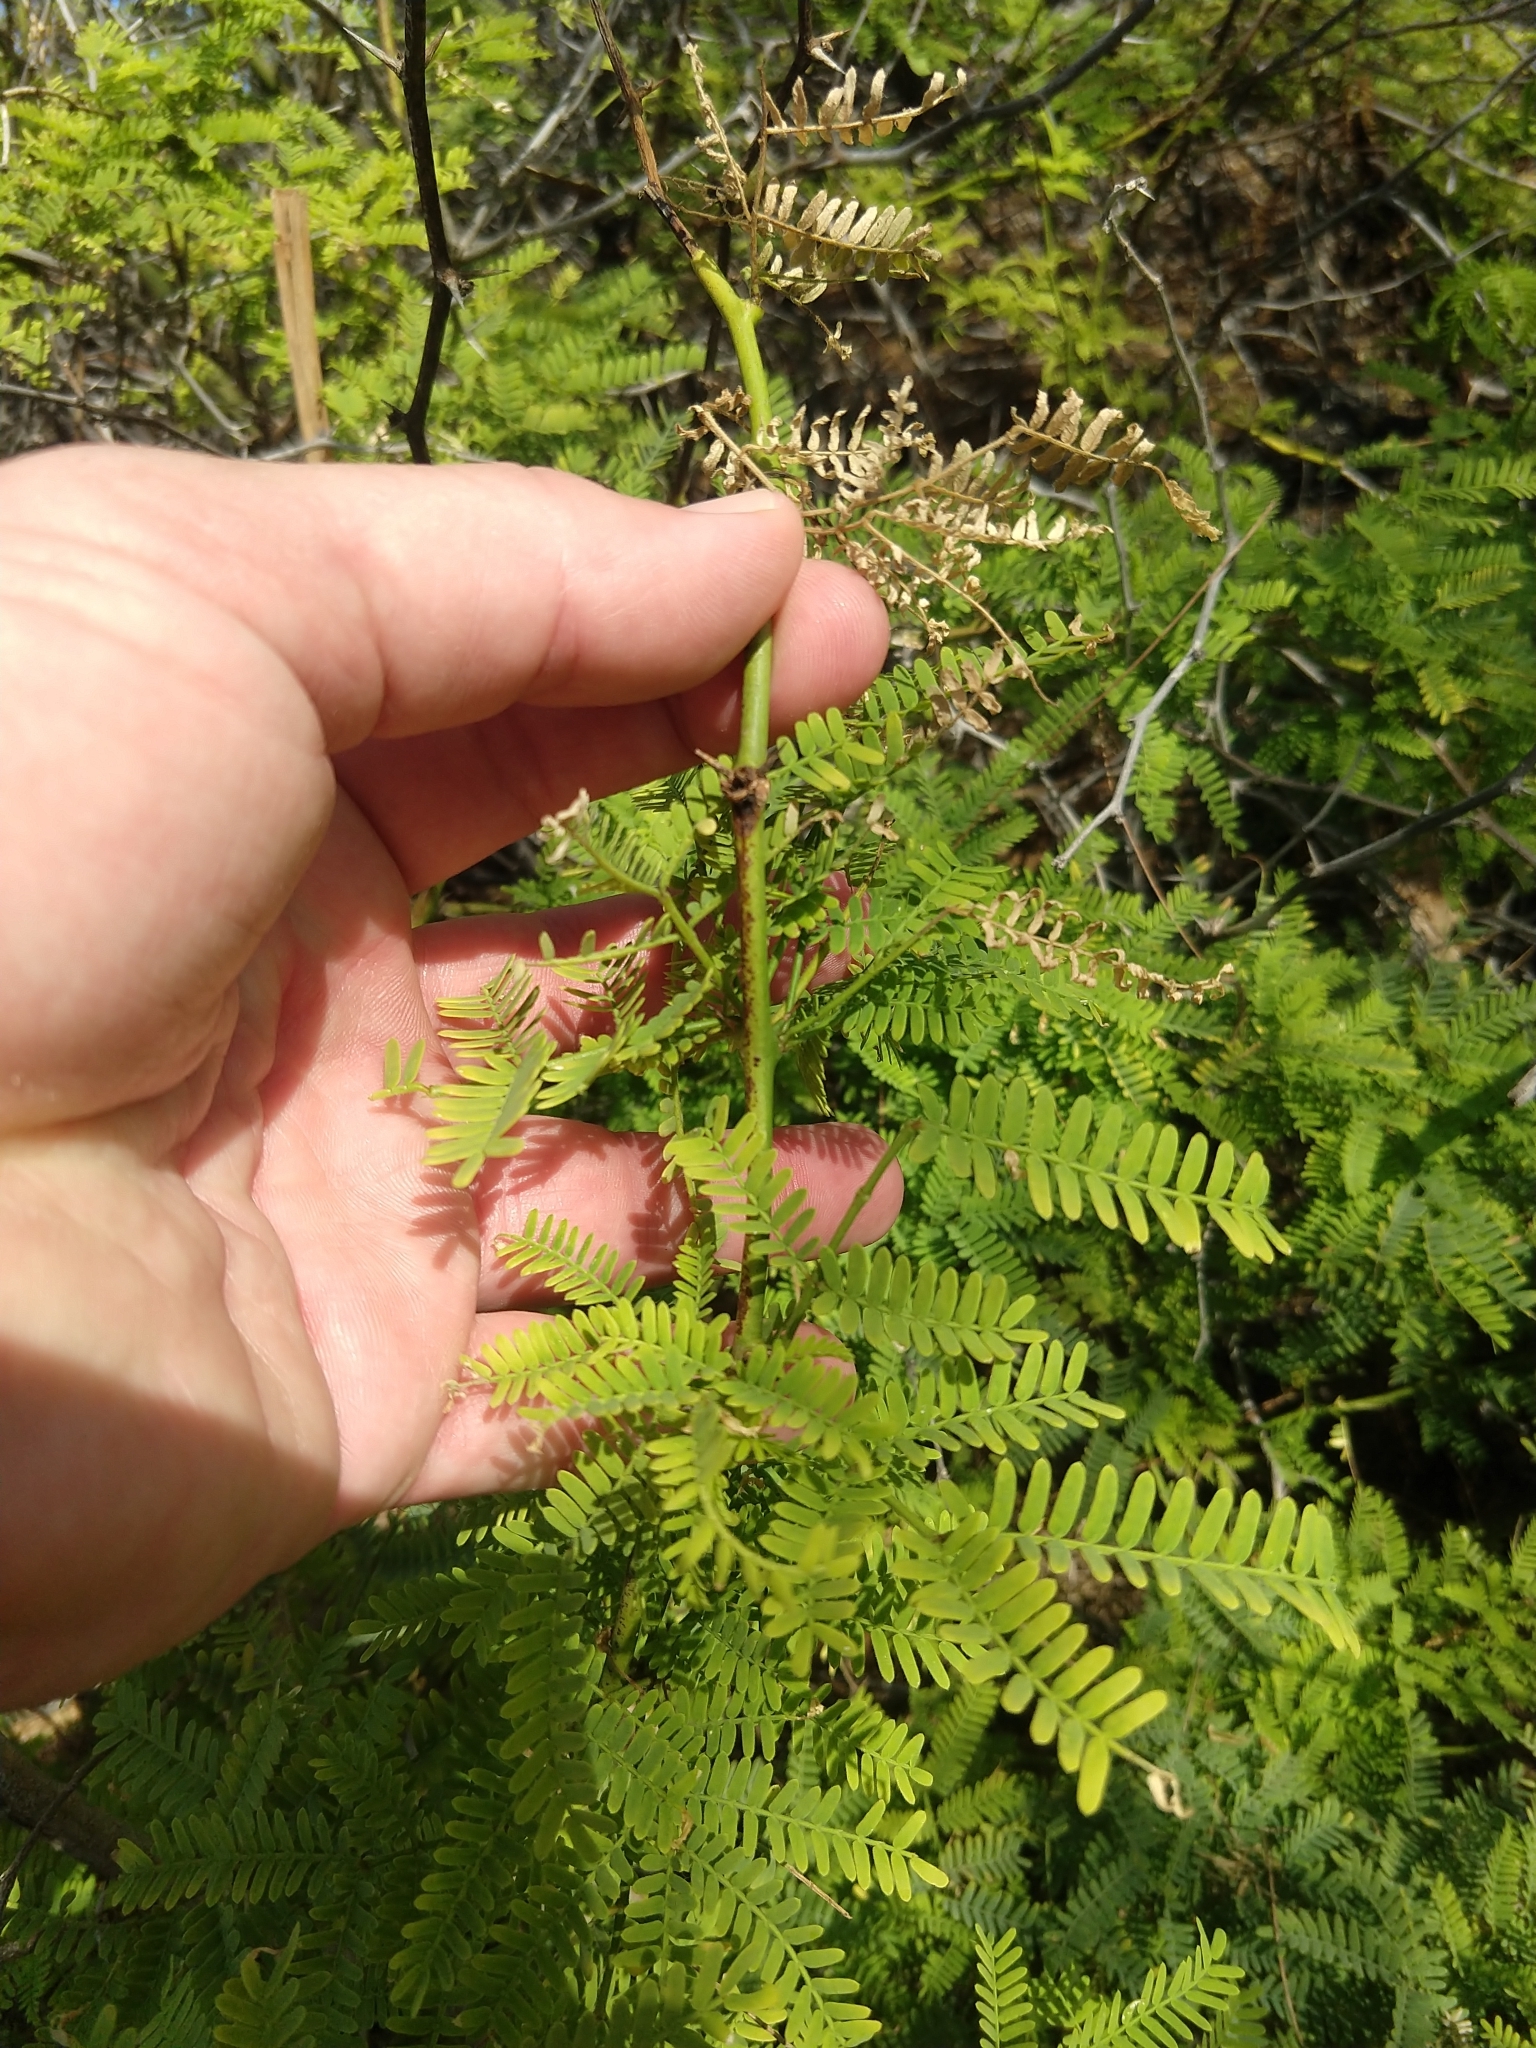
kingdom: Plantae
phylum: Tracheophyta
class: Magnoliopsida
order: Fabales
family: Fabaceae
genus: Prosopis
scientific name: Prosopis pallida
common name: Mesquite
